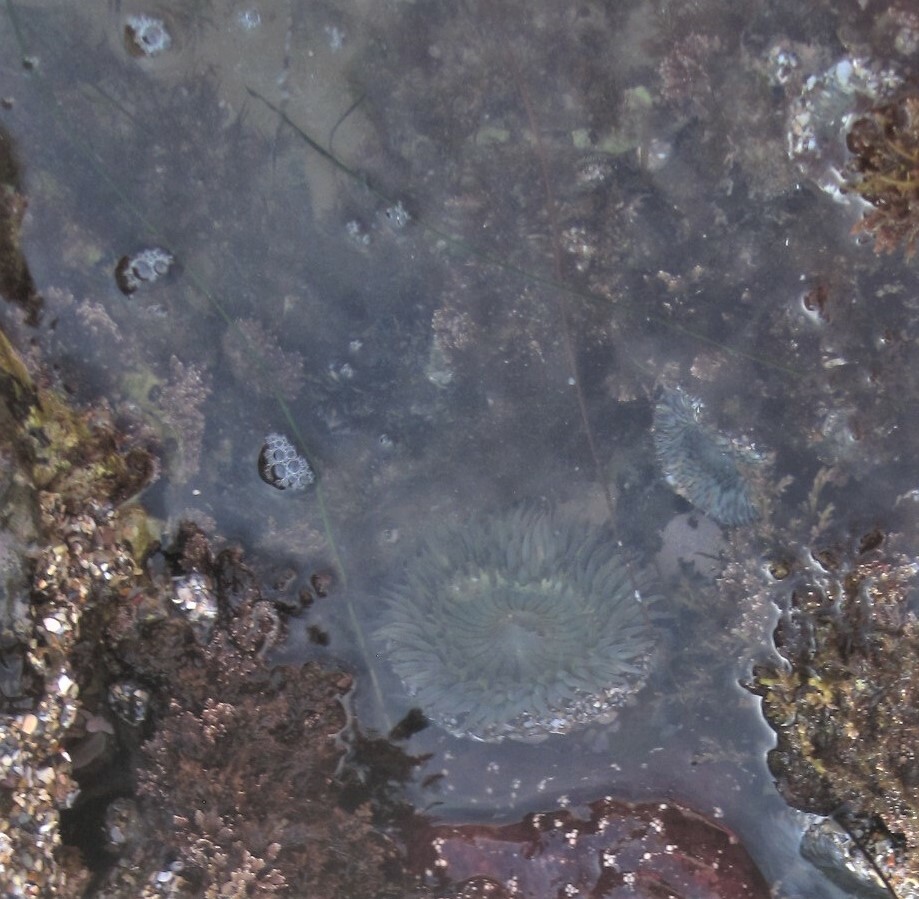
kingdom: Animalia
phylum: Cnidaria
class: Anthozoa
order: Actiniaria
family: Actiniidae
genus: Anthopleura
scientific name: Anthopleura sola
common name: Sun anemone
